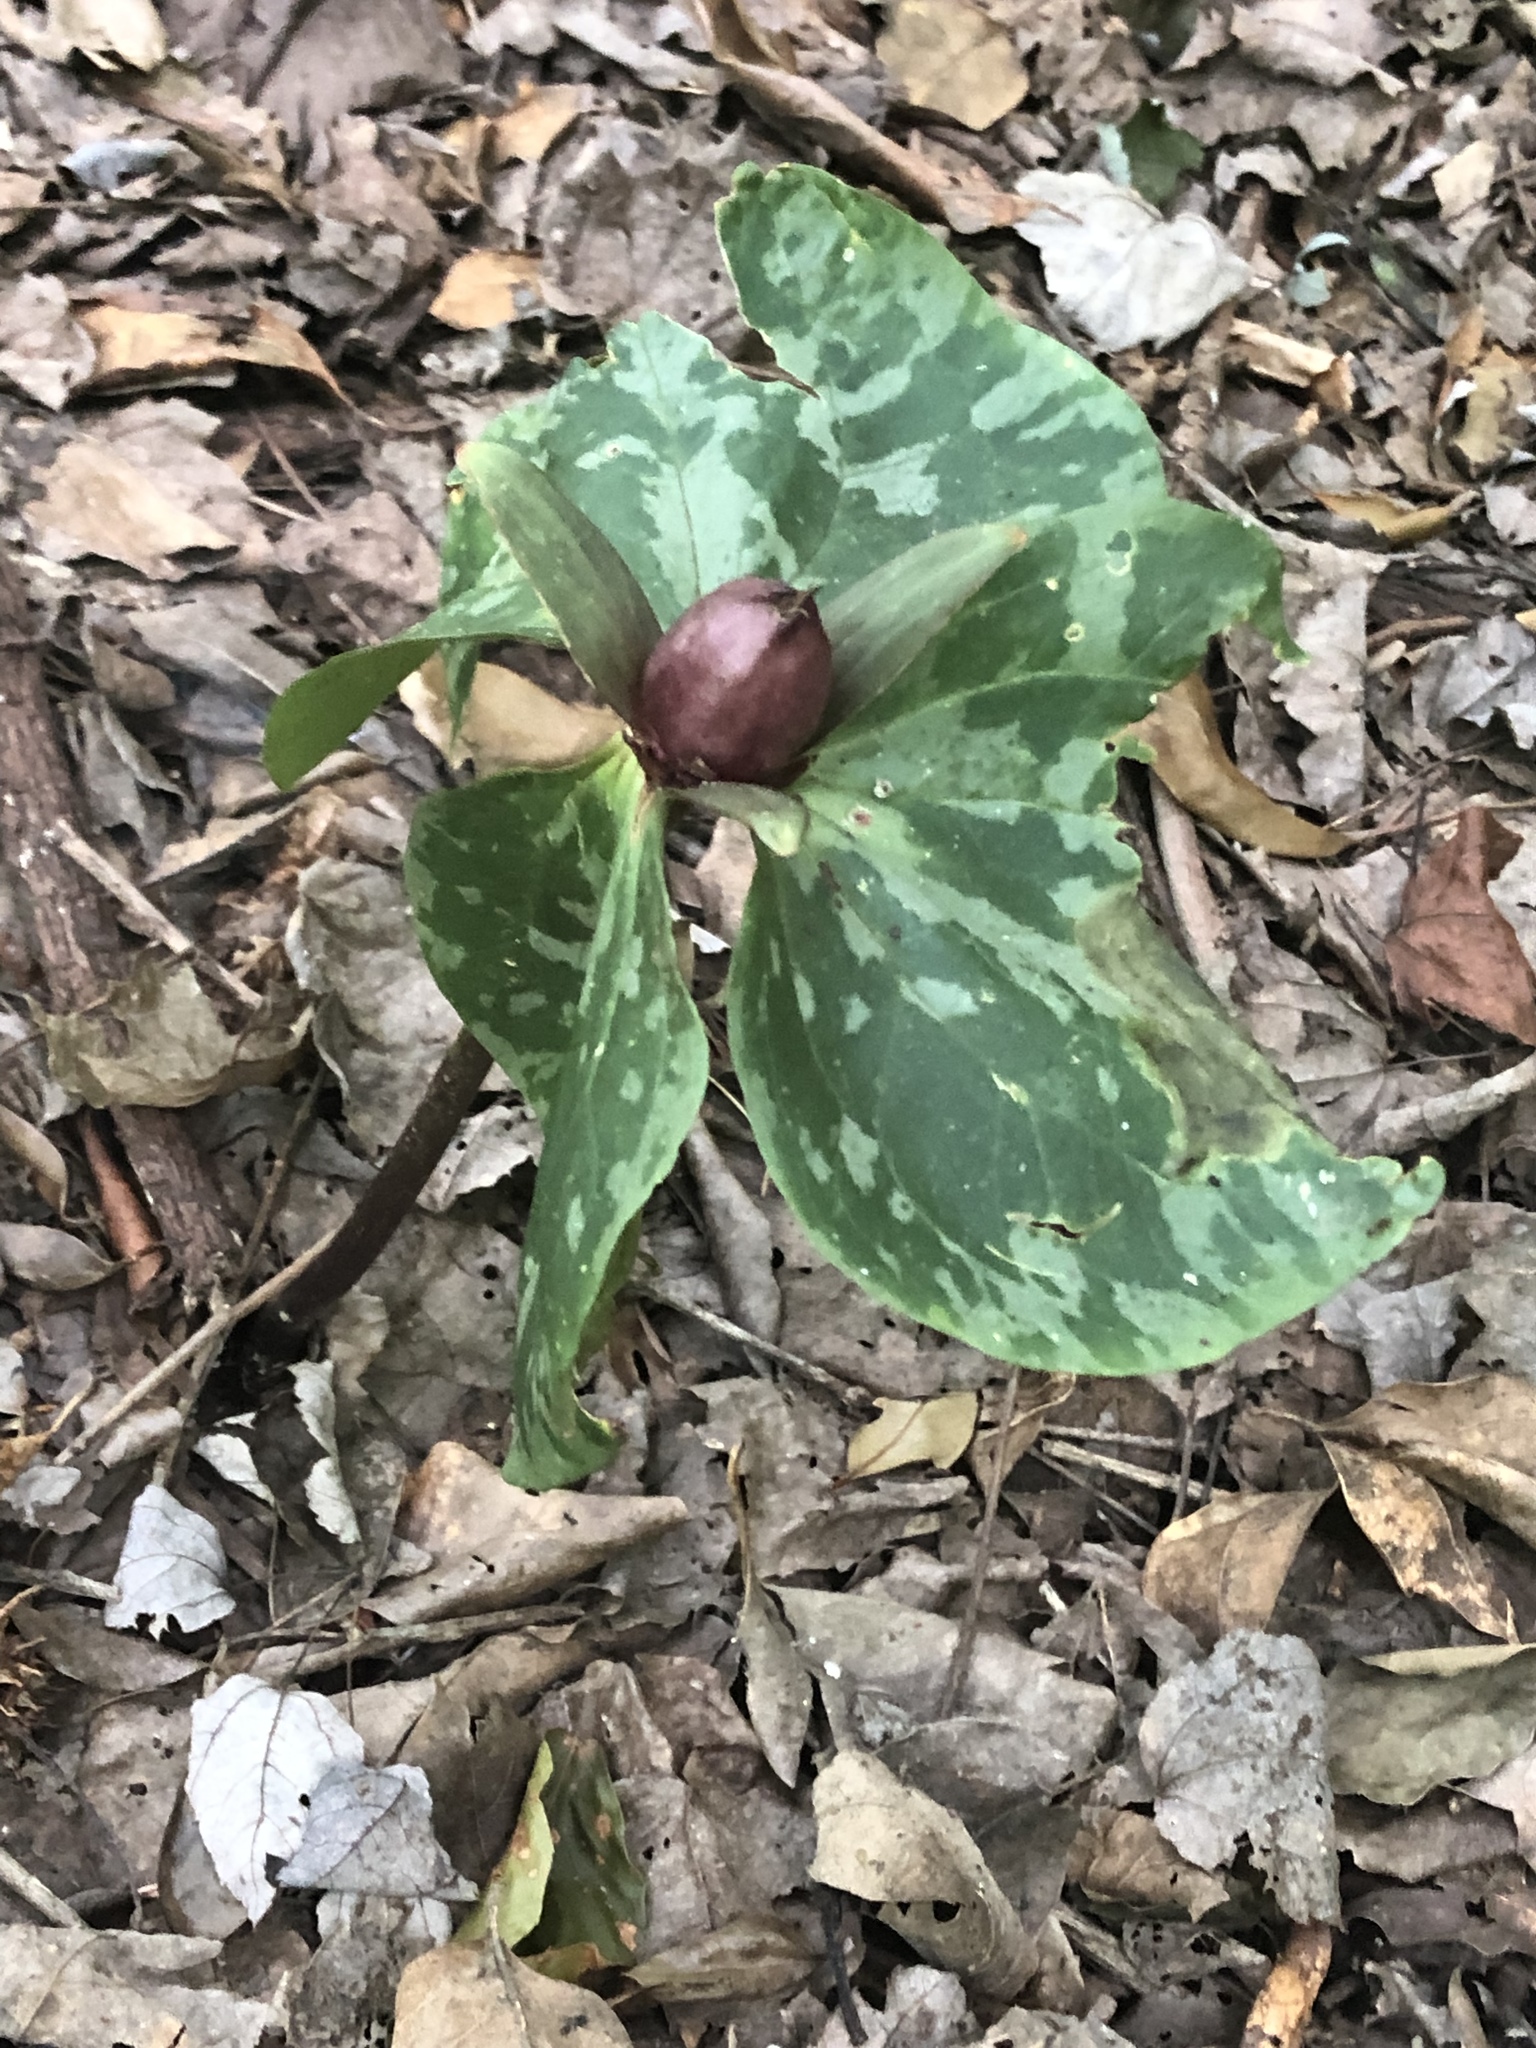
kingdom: Plantae
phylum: Tracheophyta
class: Liliopsida
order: Liliales
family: Melanthiaceae
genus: Trillium
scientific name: Trillium cuneatum
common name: Cuneate trillium
